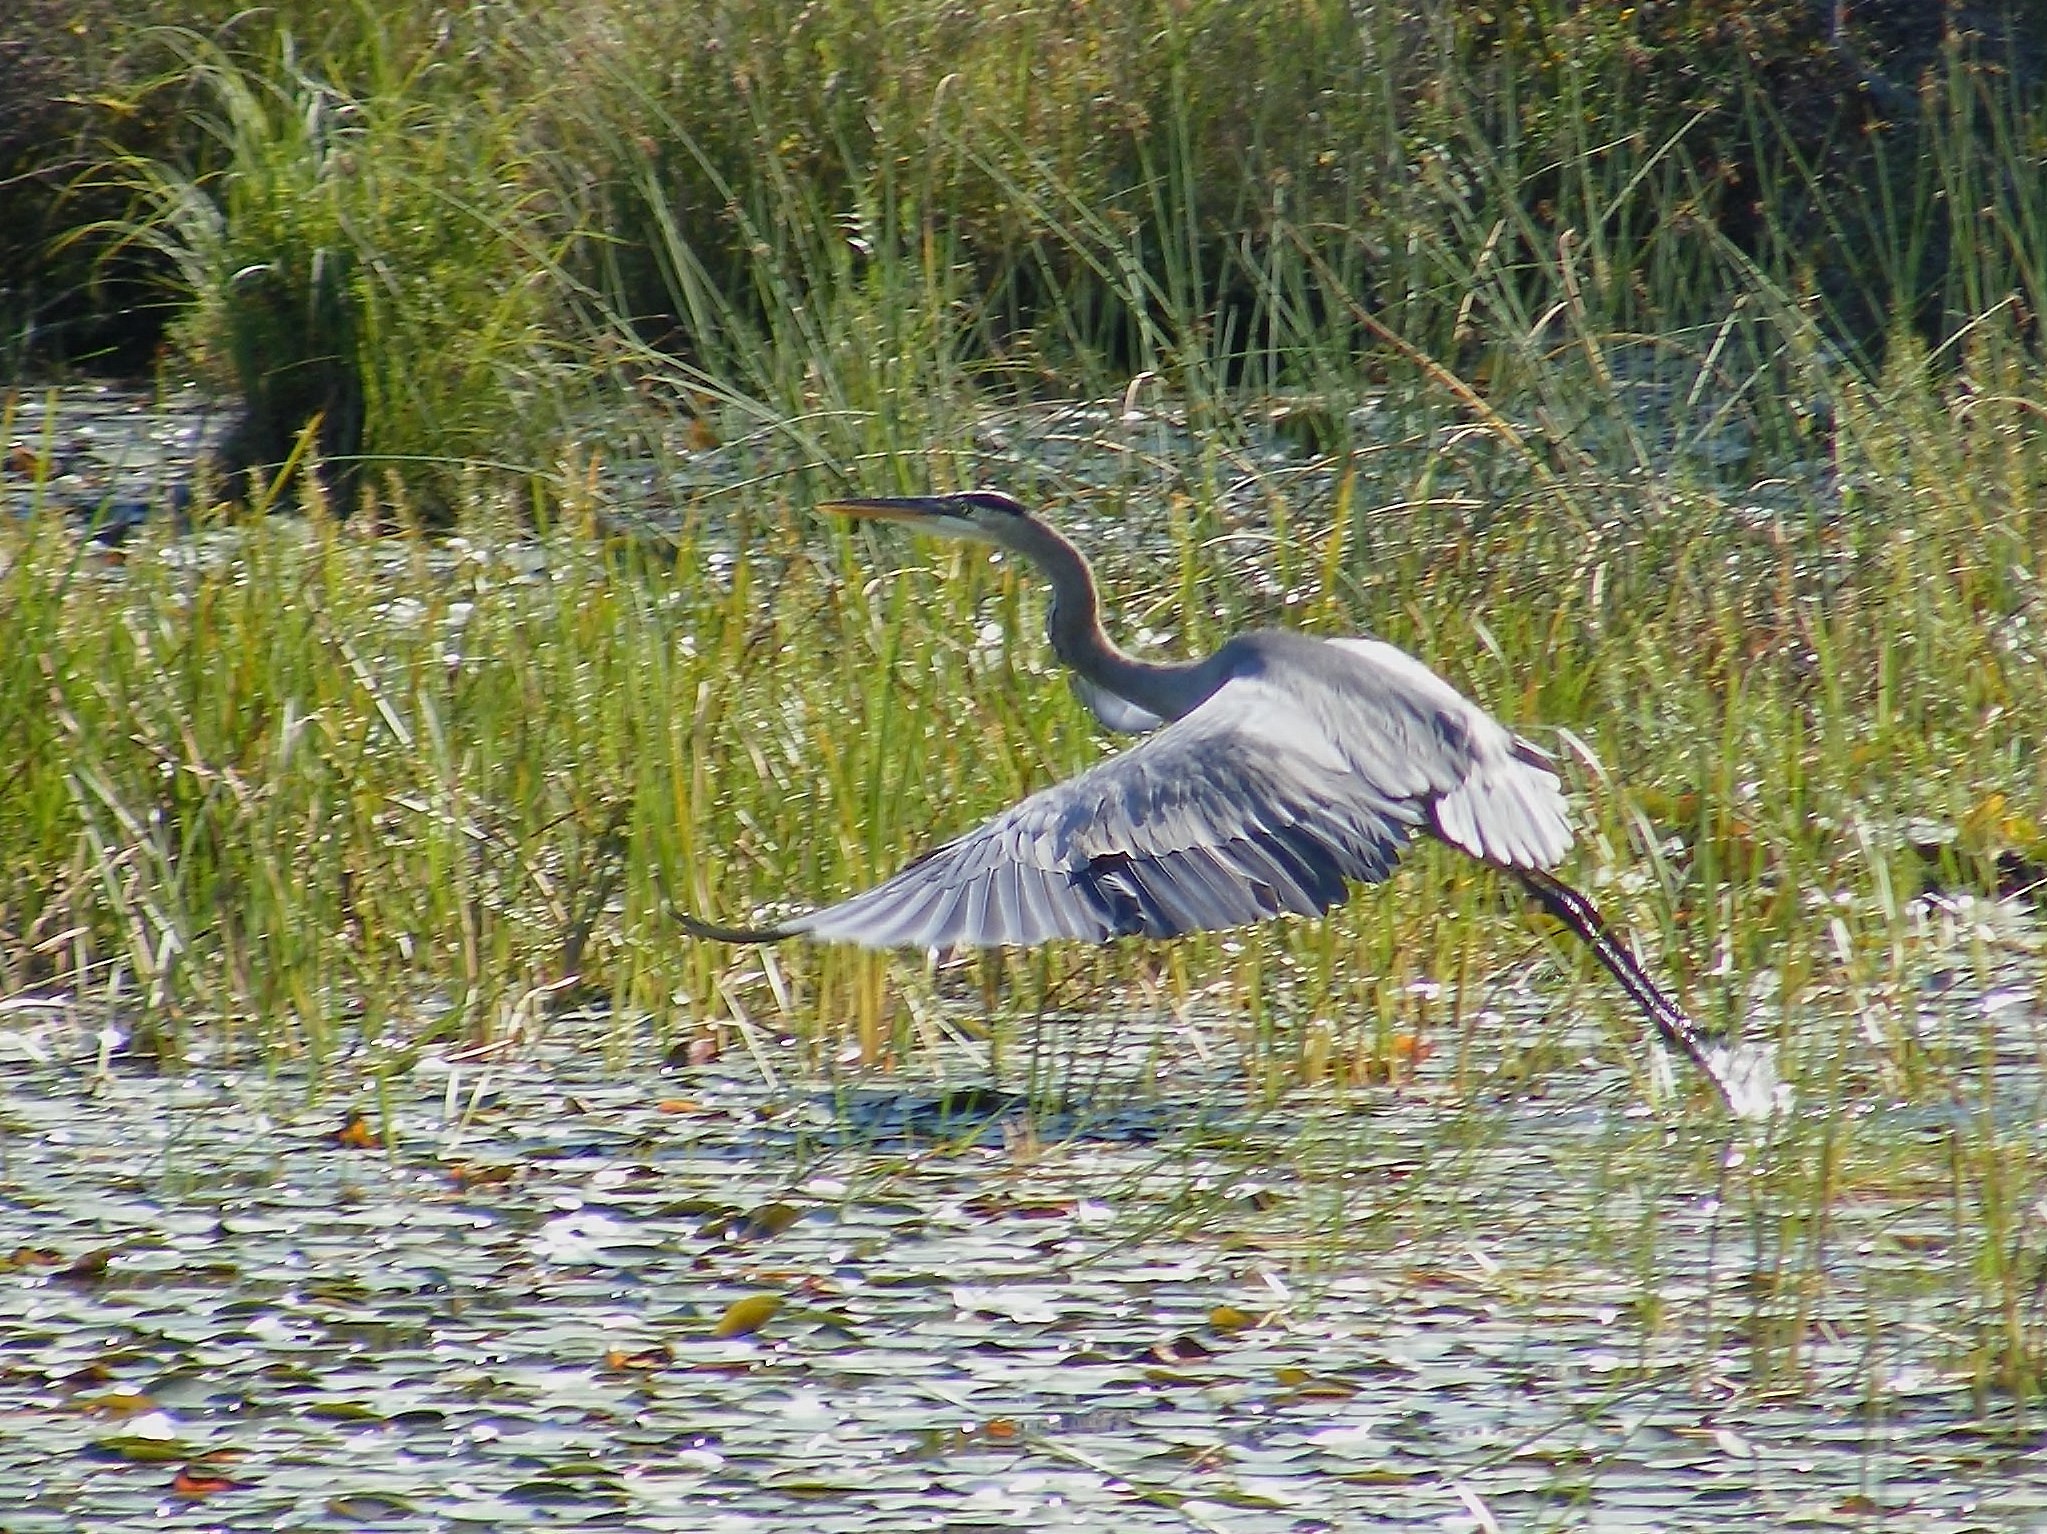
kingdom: Animalia
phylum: Chordata
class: Aves
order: Pelecaniformes
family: Ardeidae
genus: Ardea
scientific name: Ardea herodias
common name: Great blue heron
